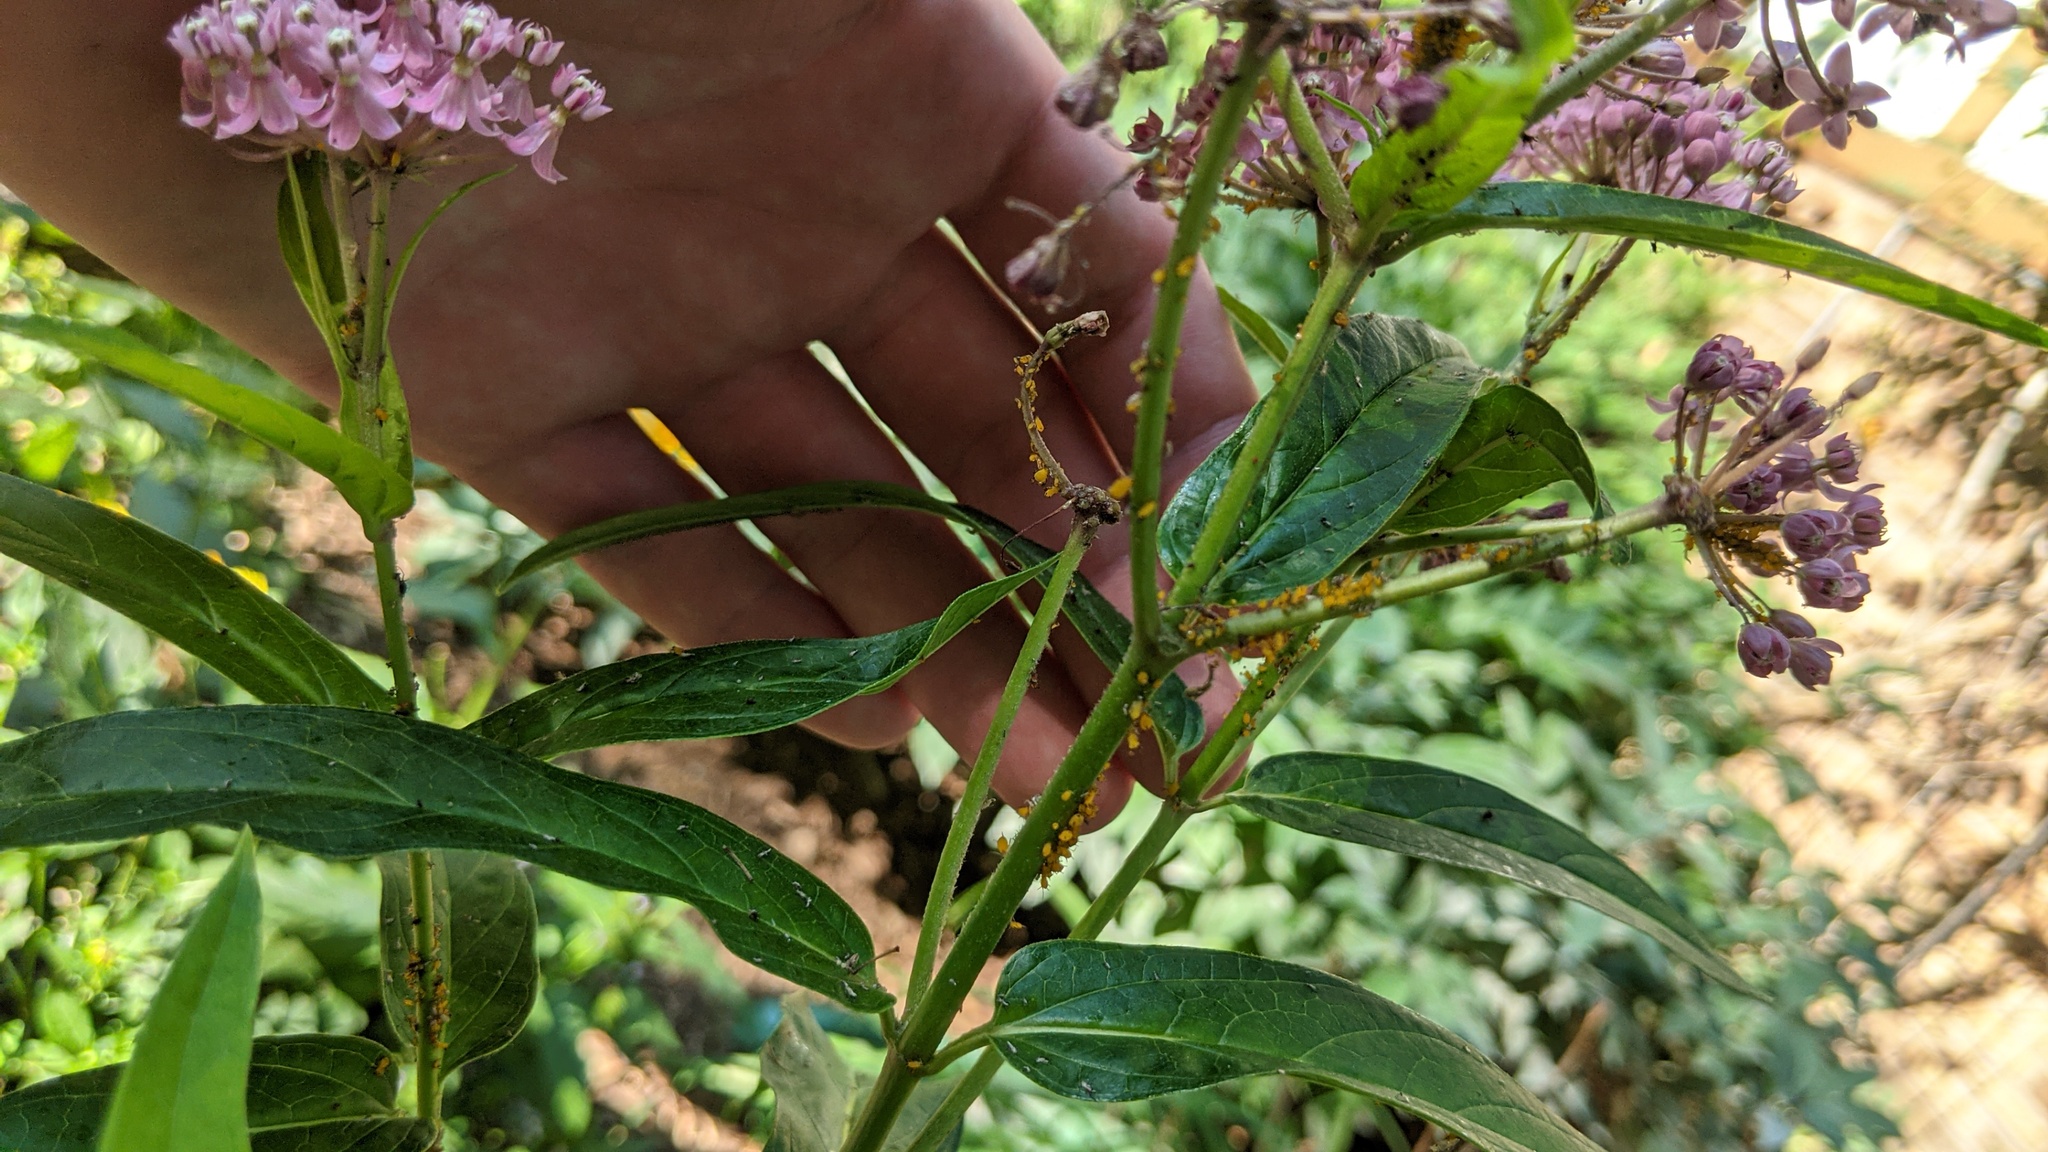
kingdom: Animalia
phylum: Arthropoda
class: Insecta
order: Hemiptera
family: Aphididae
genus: Aphis
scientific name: Aphis nerii
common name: Oleander aphid
